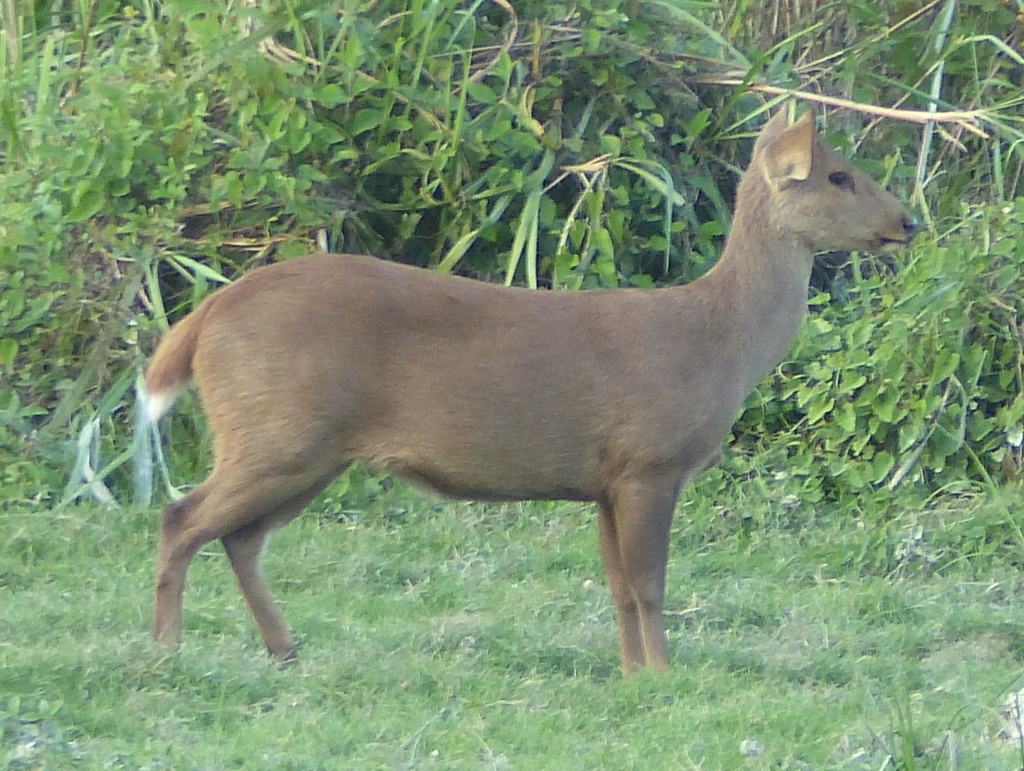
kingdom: Animalia
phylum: Chordata
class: Mammalia
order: Artiodactyla
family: Cervidae
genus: Axis
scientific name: Axis porcinus
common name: Hog deer
